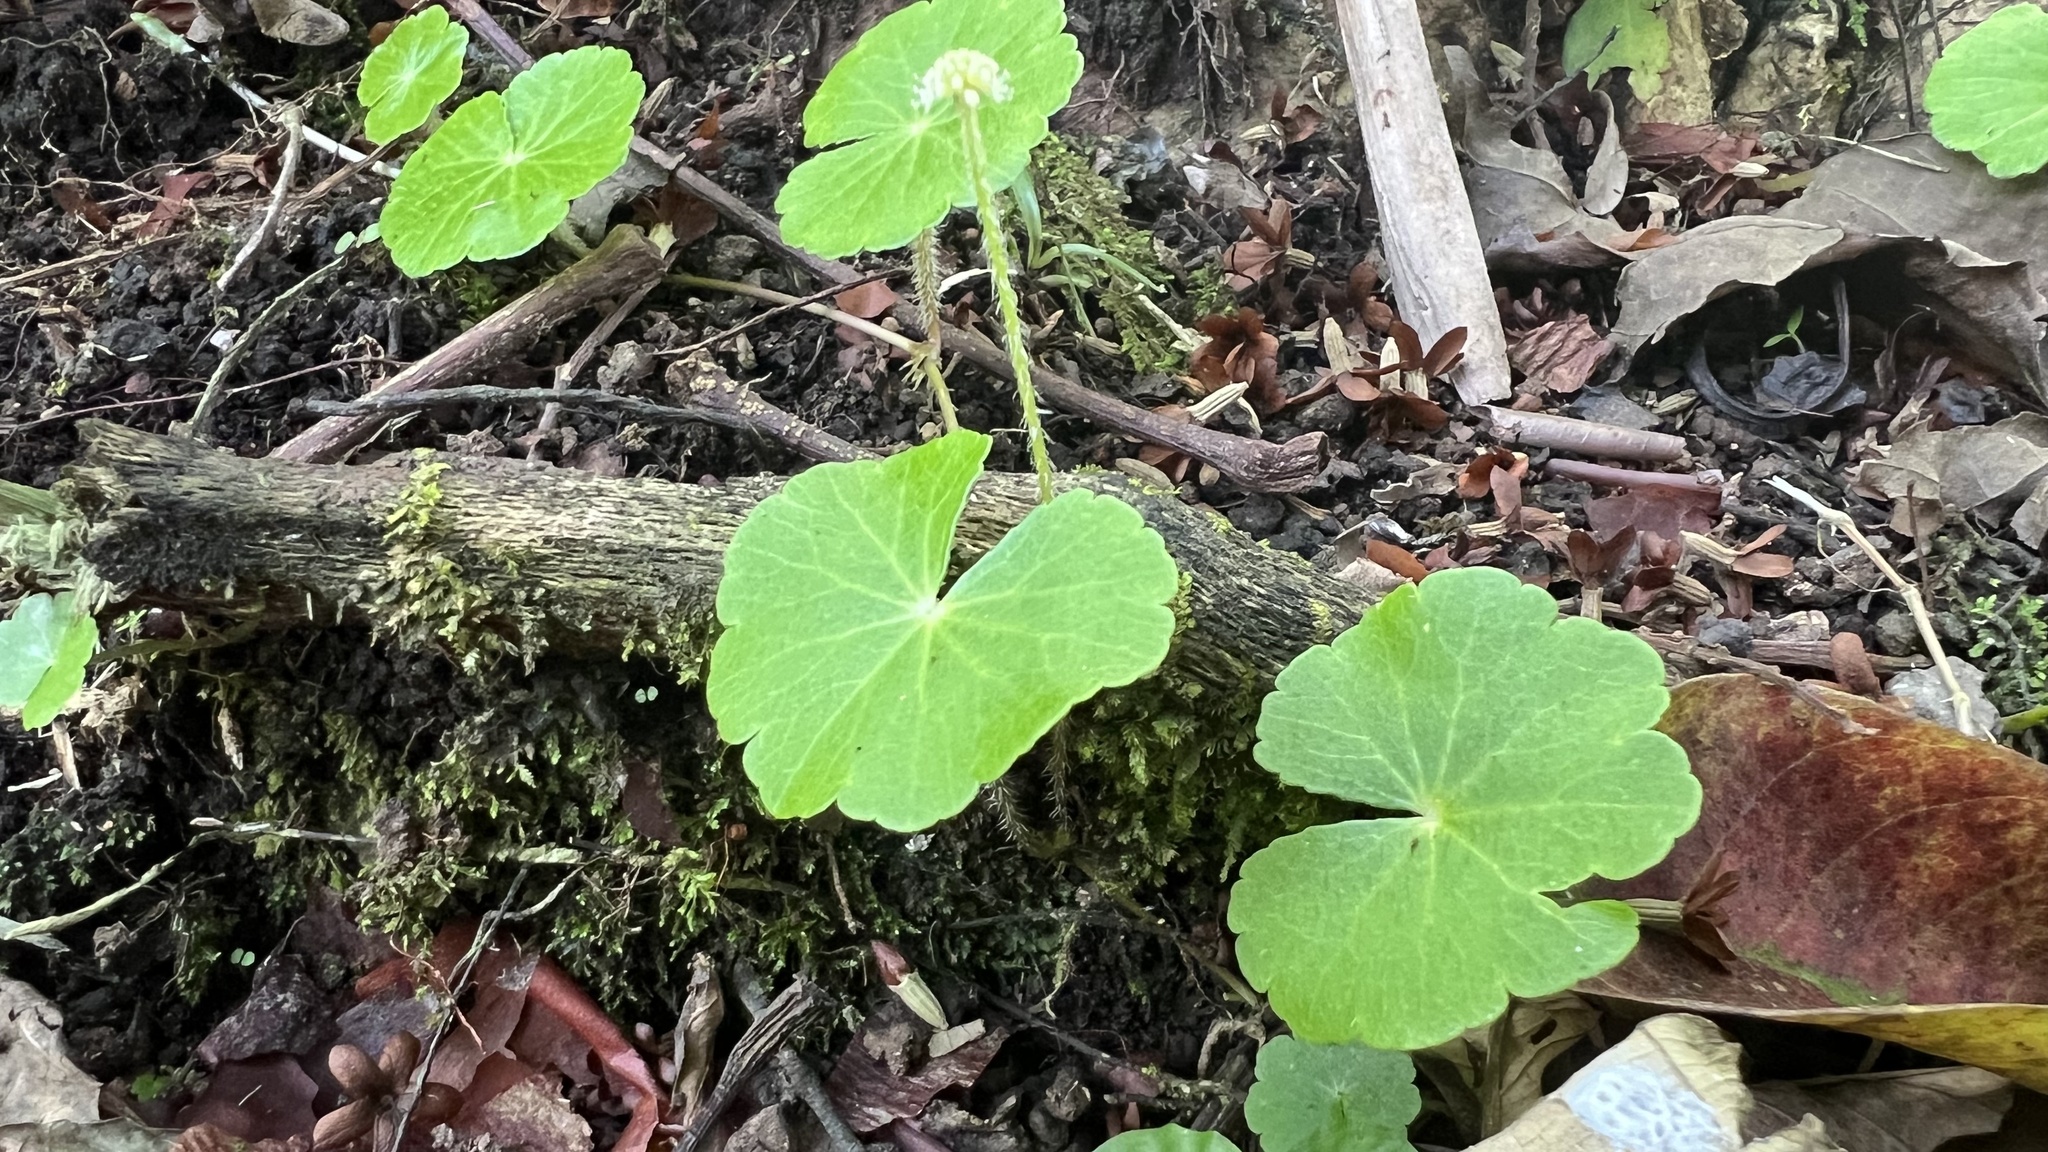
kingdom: Plantae
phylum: Tracheophyta
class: Magnoliopsida
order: Apiales
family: Araliaceae
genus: Hydrocotyle
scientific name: Hydrocotyle leucocephala
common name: Brazilian pennywort
